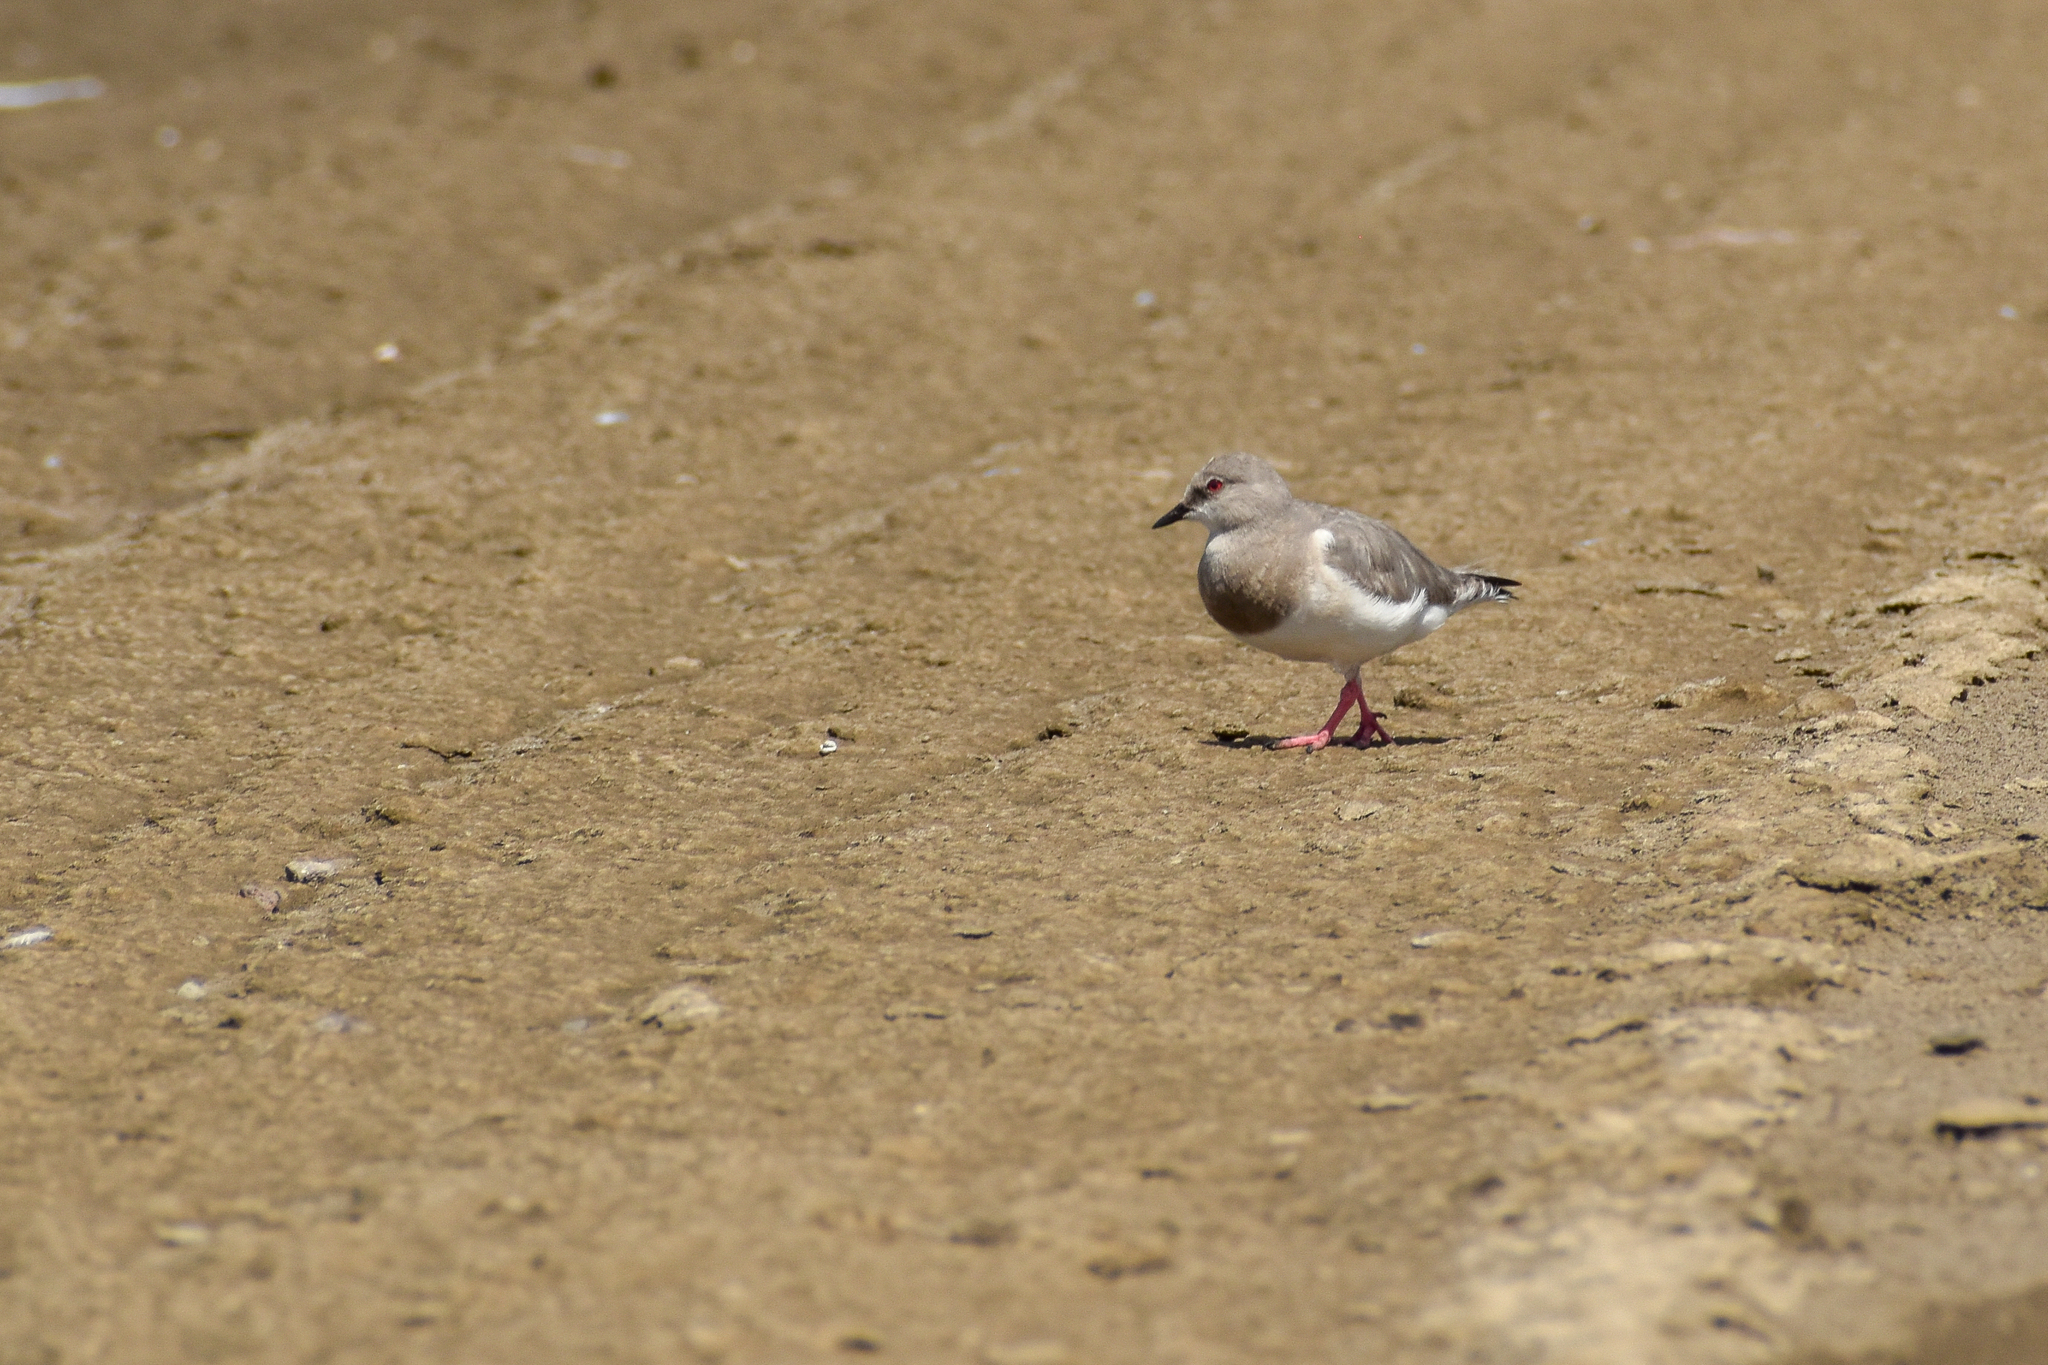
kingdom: Animalia
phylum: Chordata
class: Aves
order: Charadriiformes
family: Pluvianellidae
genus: Pluvianellus
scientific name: Pluvianellus socialis
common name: Magellanic plover
